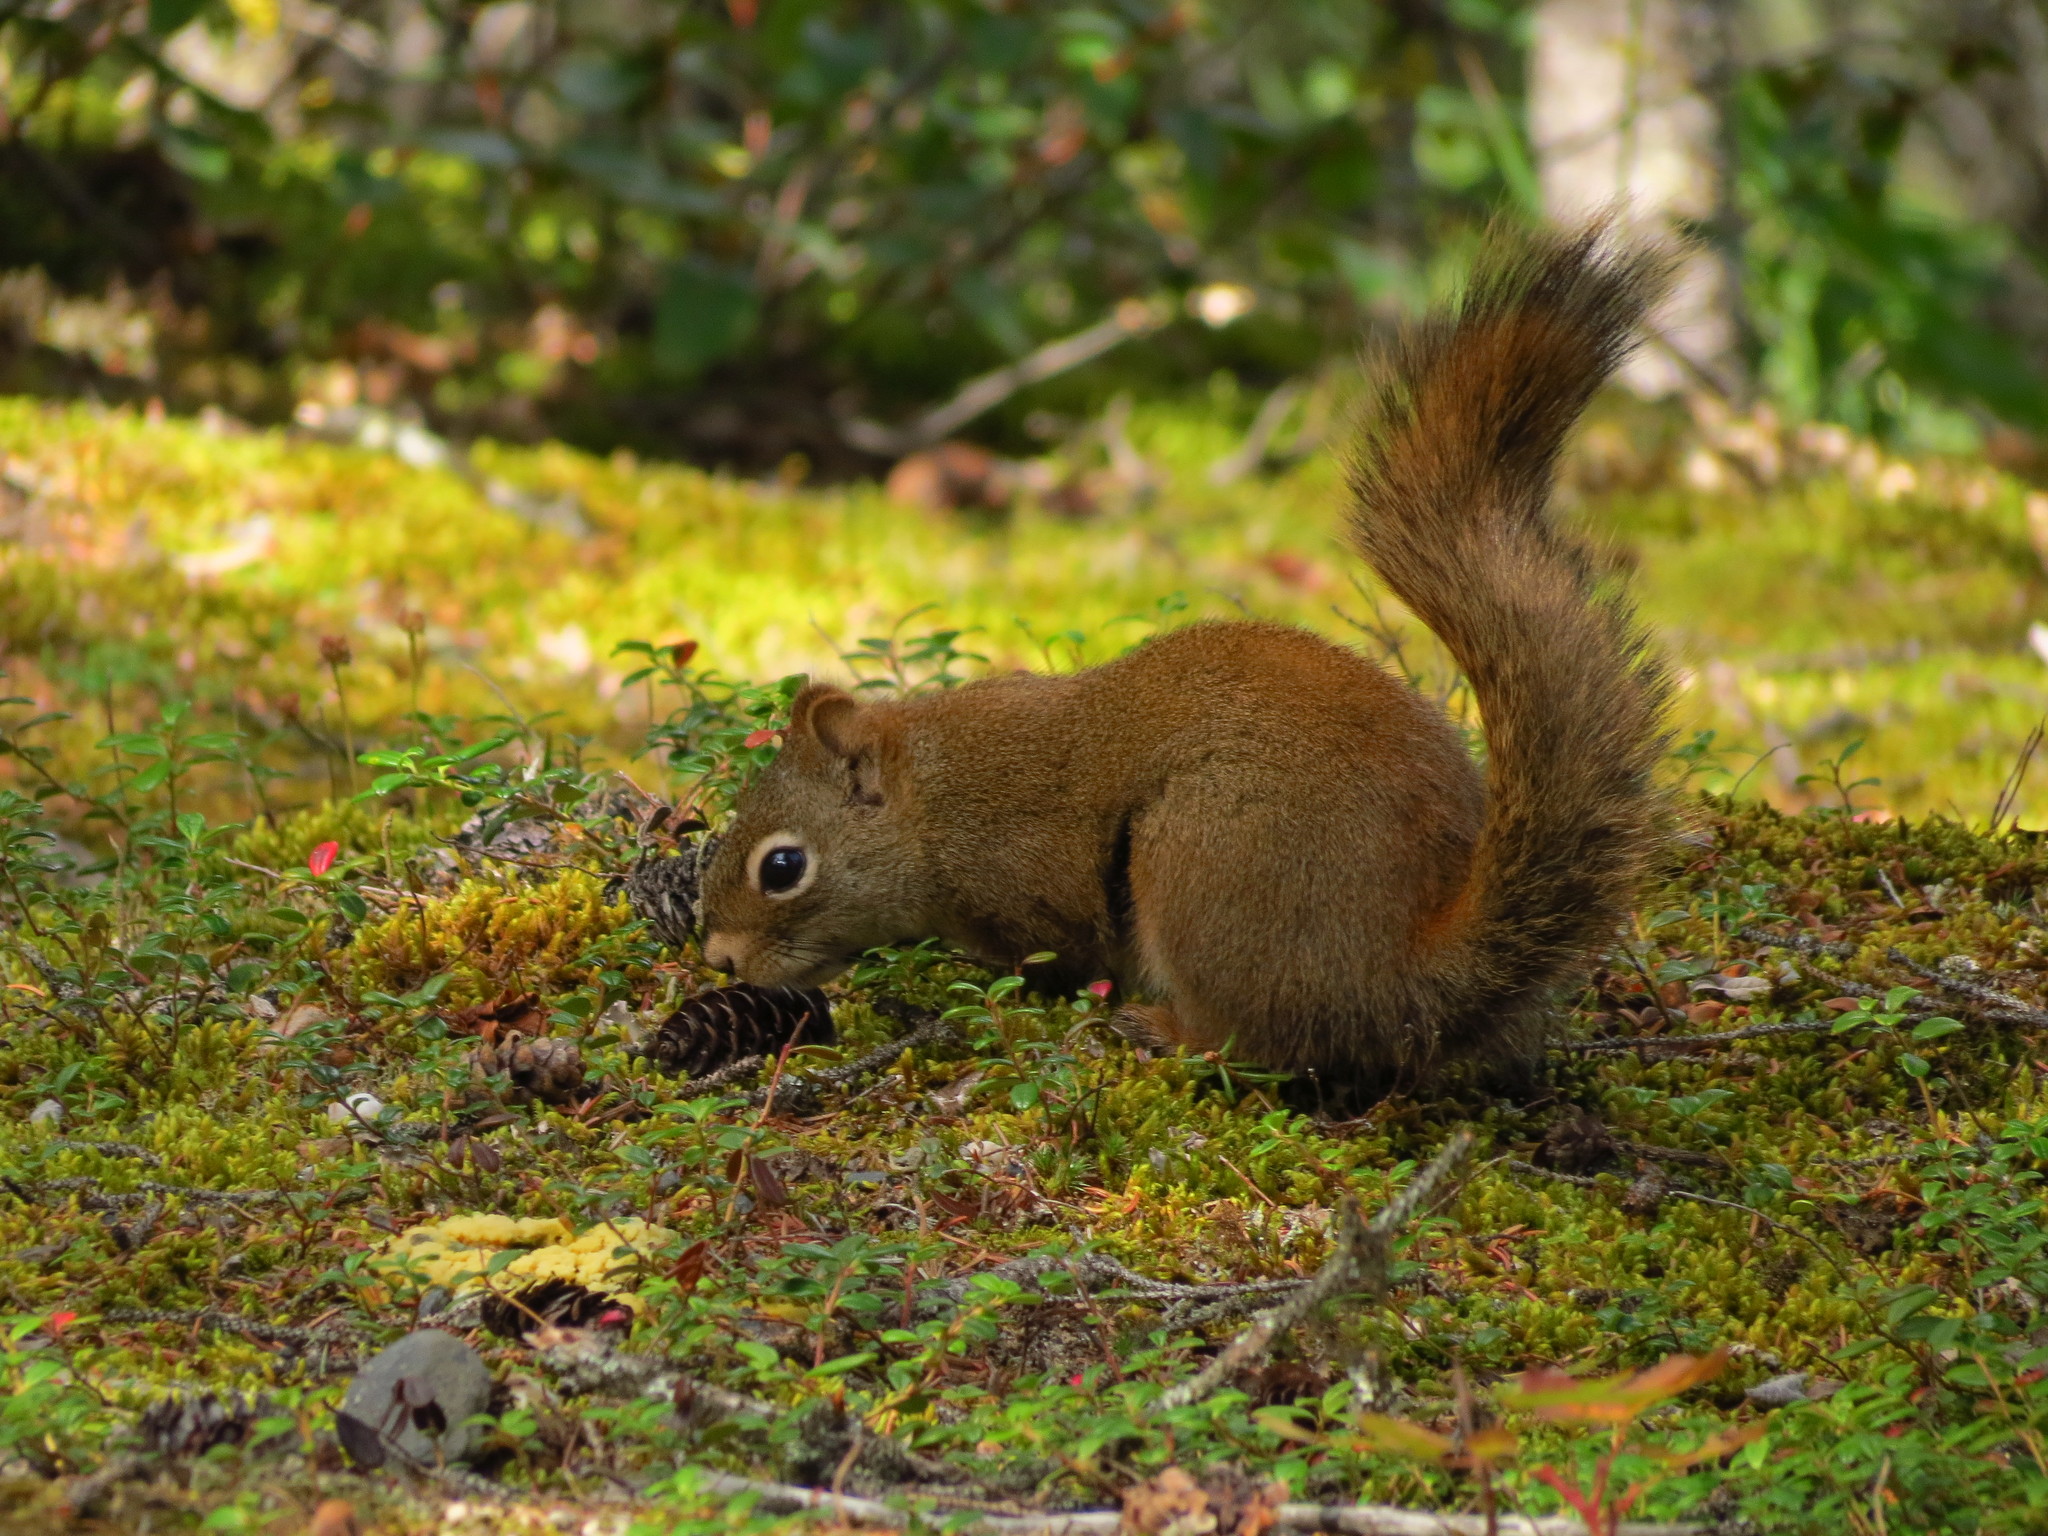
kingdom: Animalia
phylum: Chordata
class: Mammalia
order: Rodentia
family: Sciuridae
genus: Tamiasciurus
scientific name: Tamiasciurus hudsonicus
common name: Red squirrel
